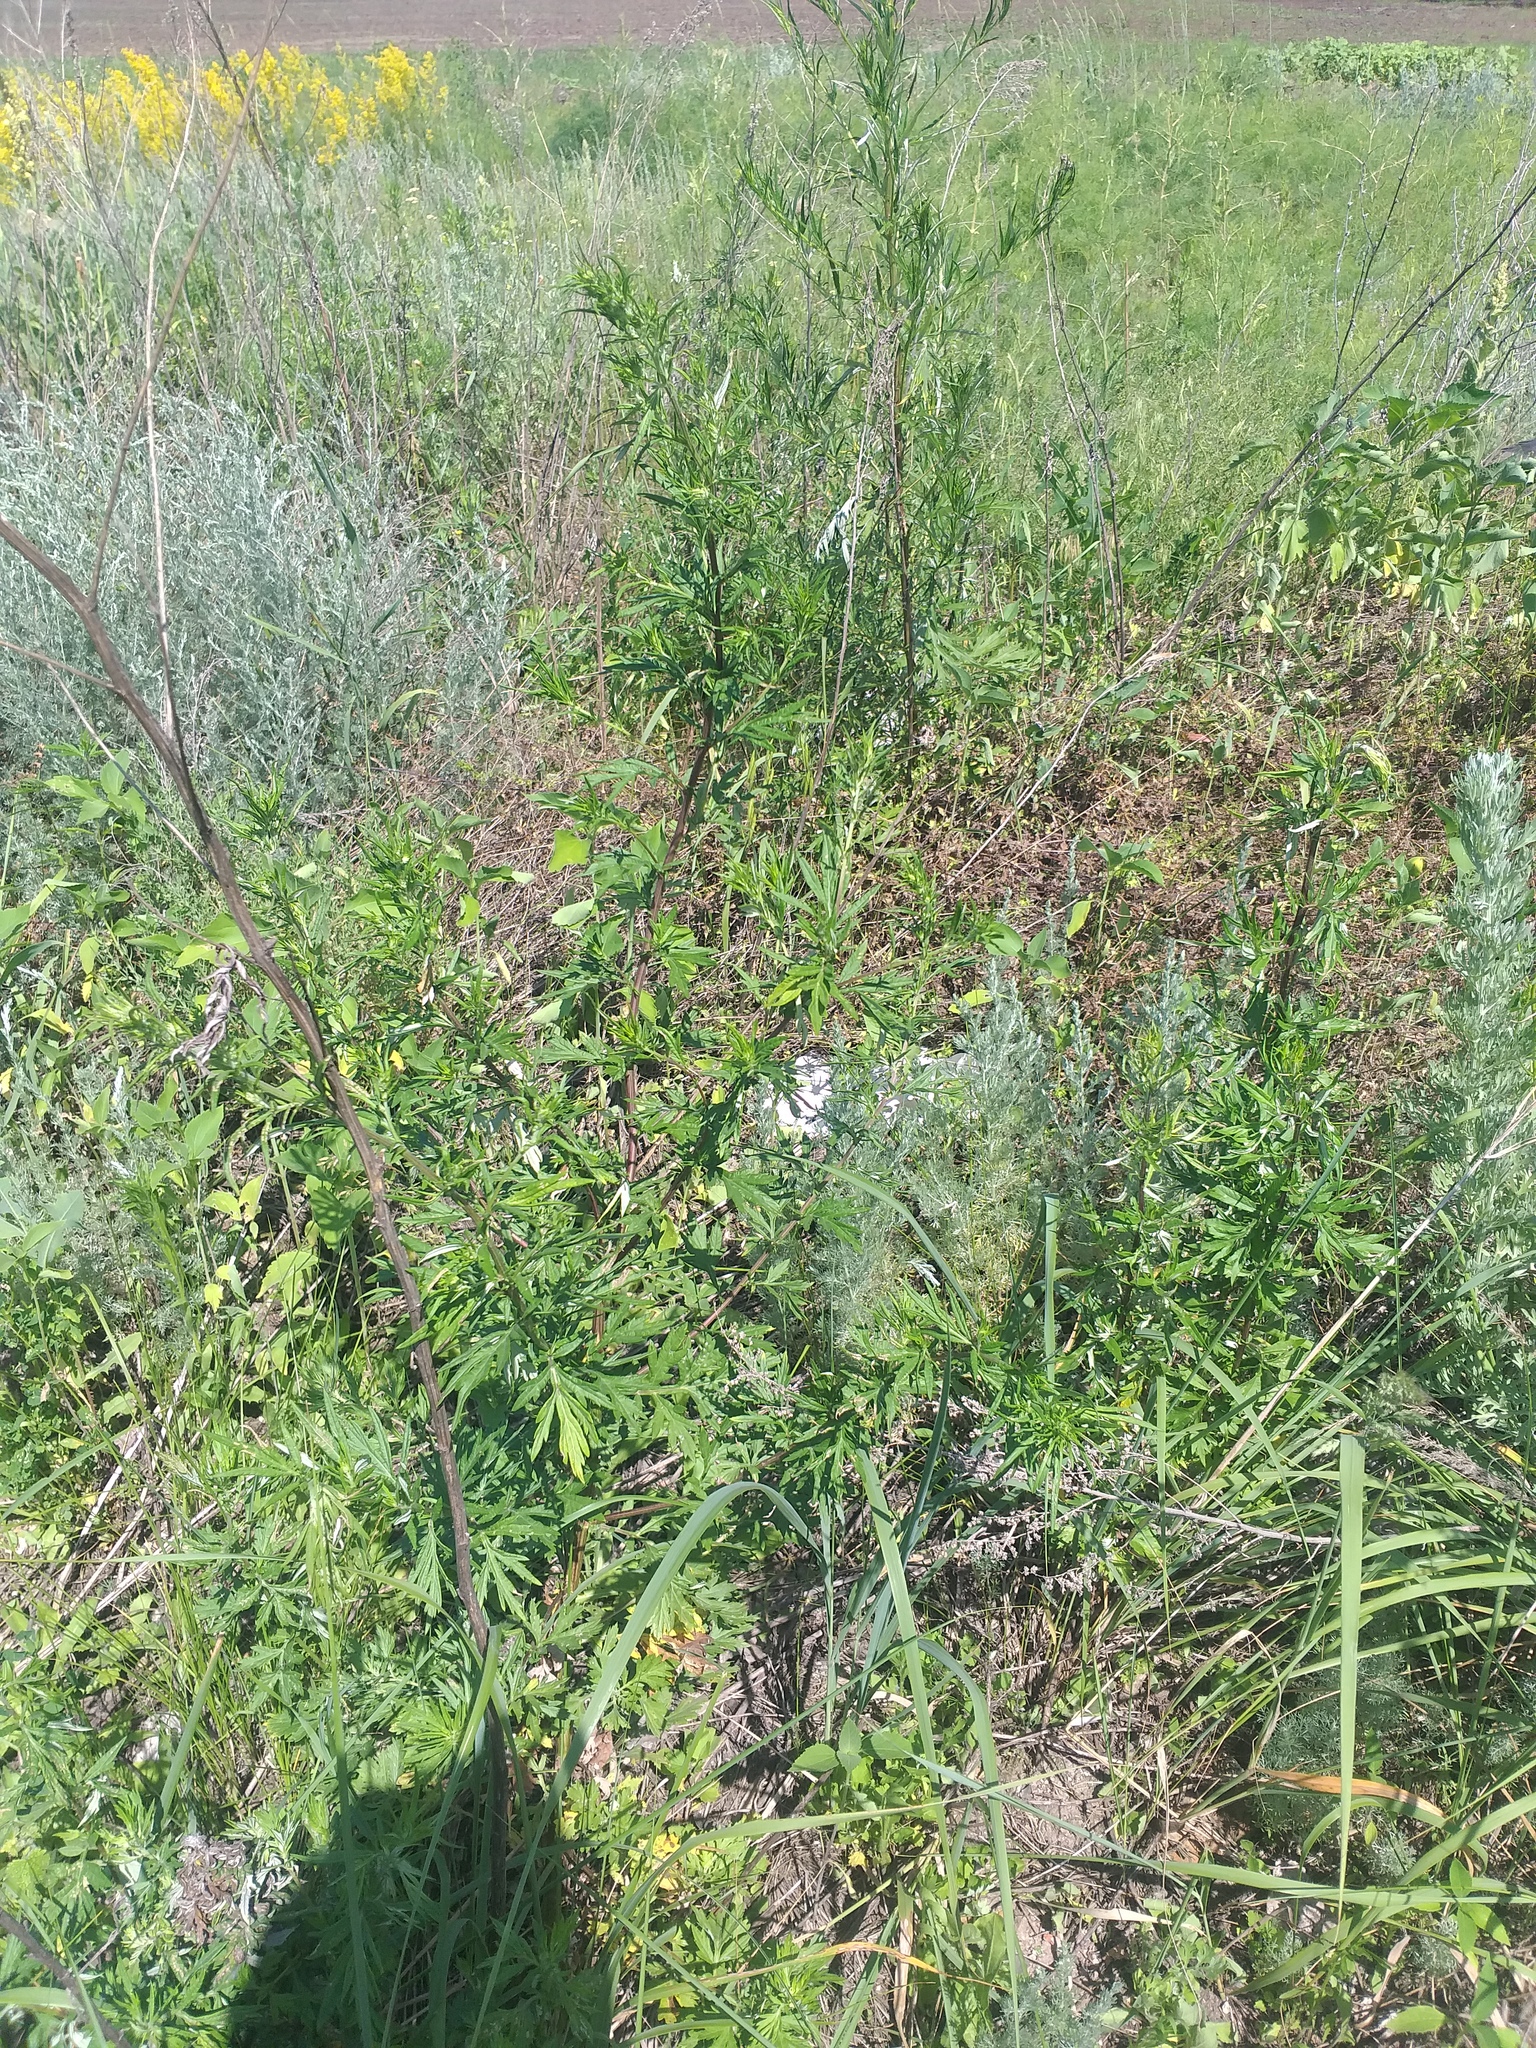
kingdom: Plantae
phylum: Tracheophyta
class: Magnoliopsida
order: Asterales
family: Asteraceae
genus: Artemisia
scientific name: Artemisia vulgaris
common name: Mugwort
